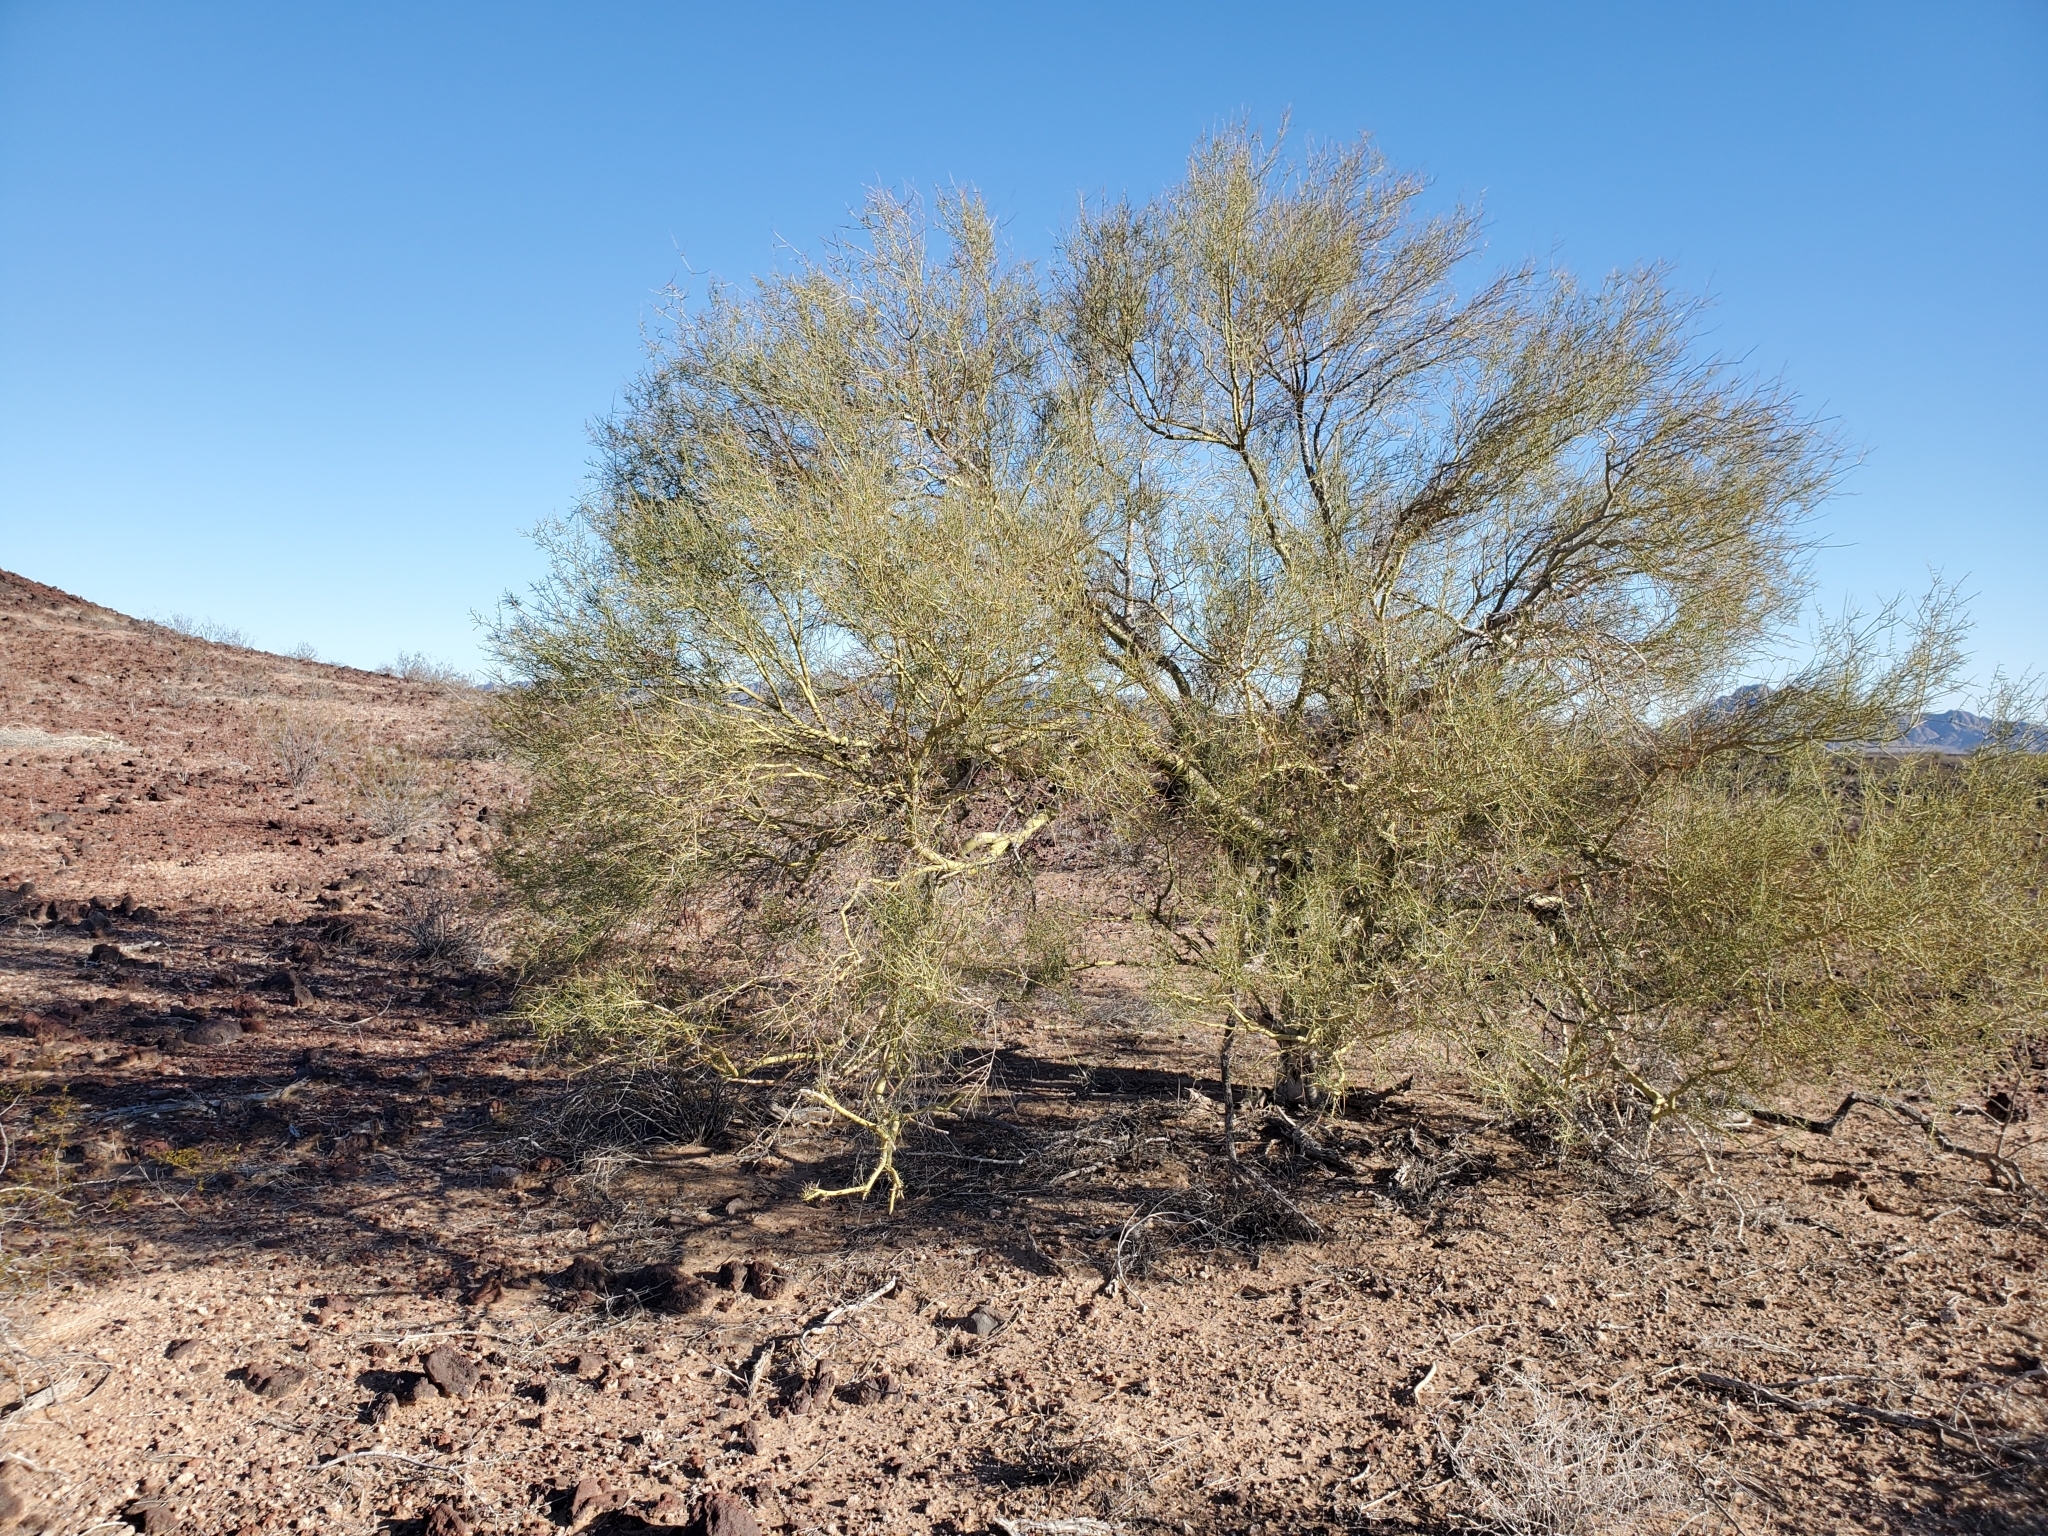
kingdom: Plantae
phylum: Tracheophyta
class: Magnoliopsida
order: Fabales
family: Fabaceae
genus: Parkinsonia
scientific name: Parkinsonia microphylla
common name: Yellow paloverde
